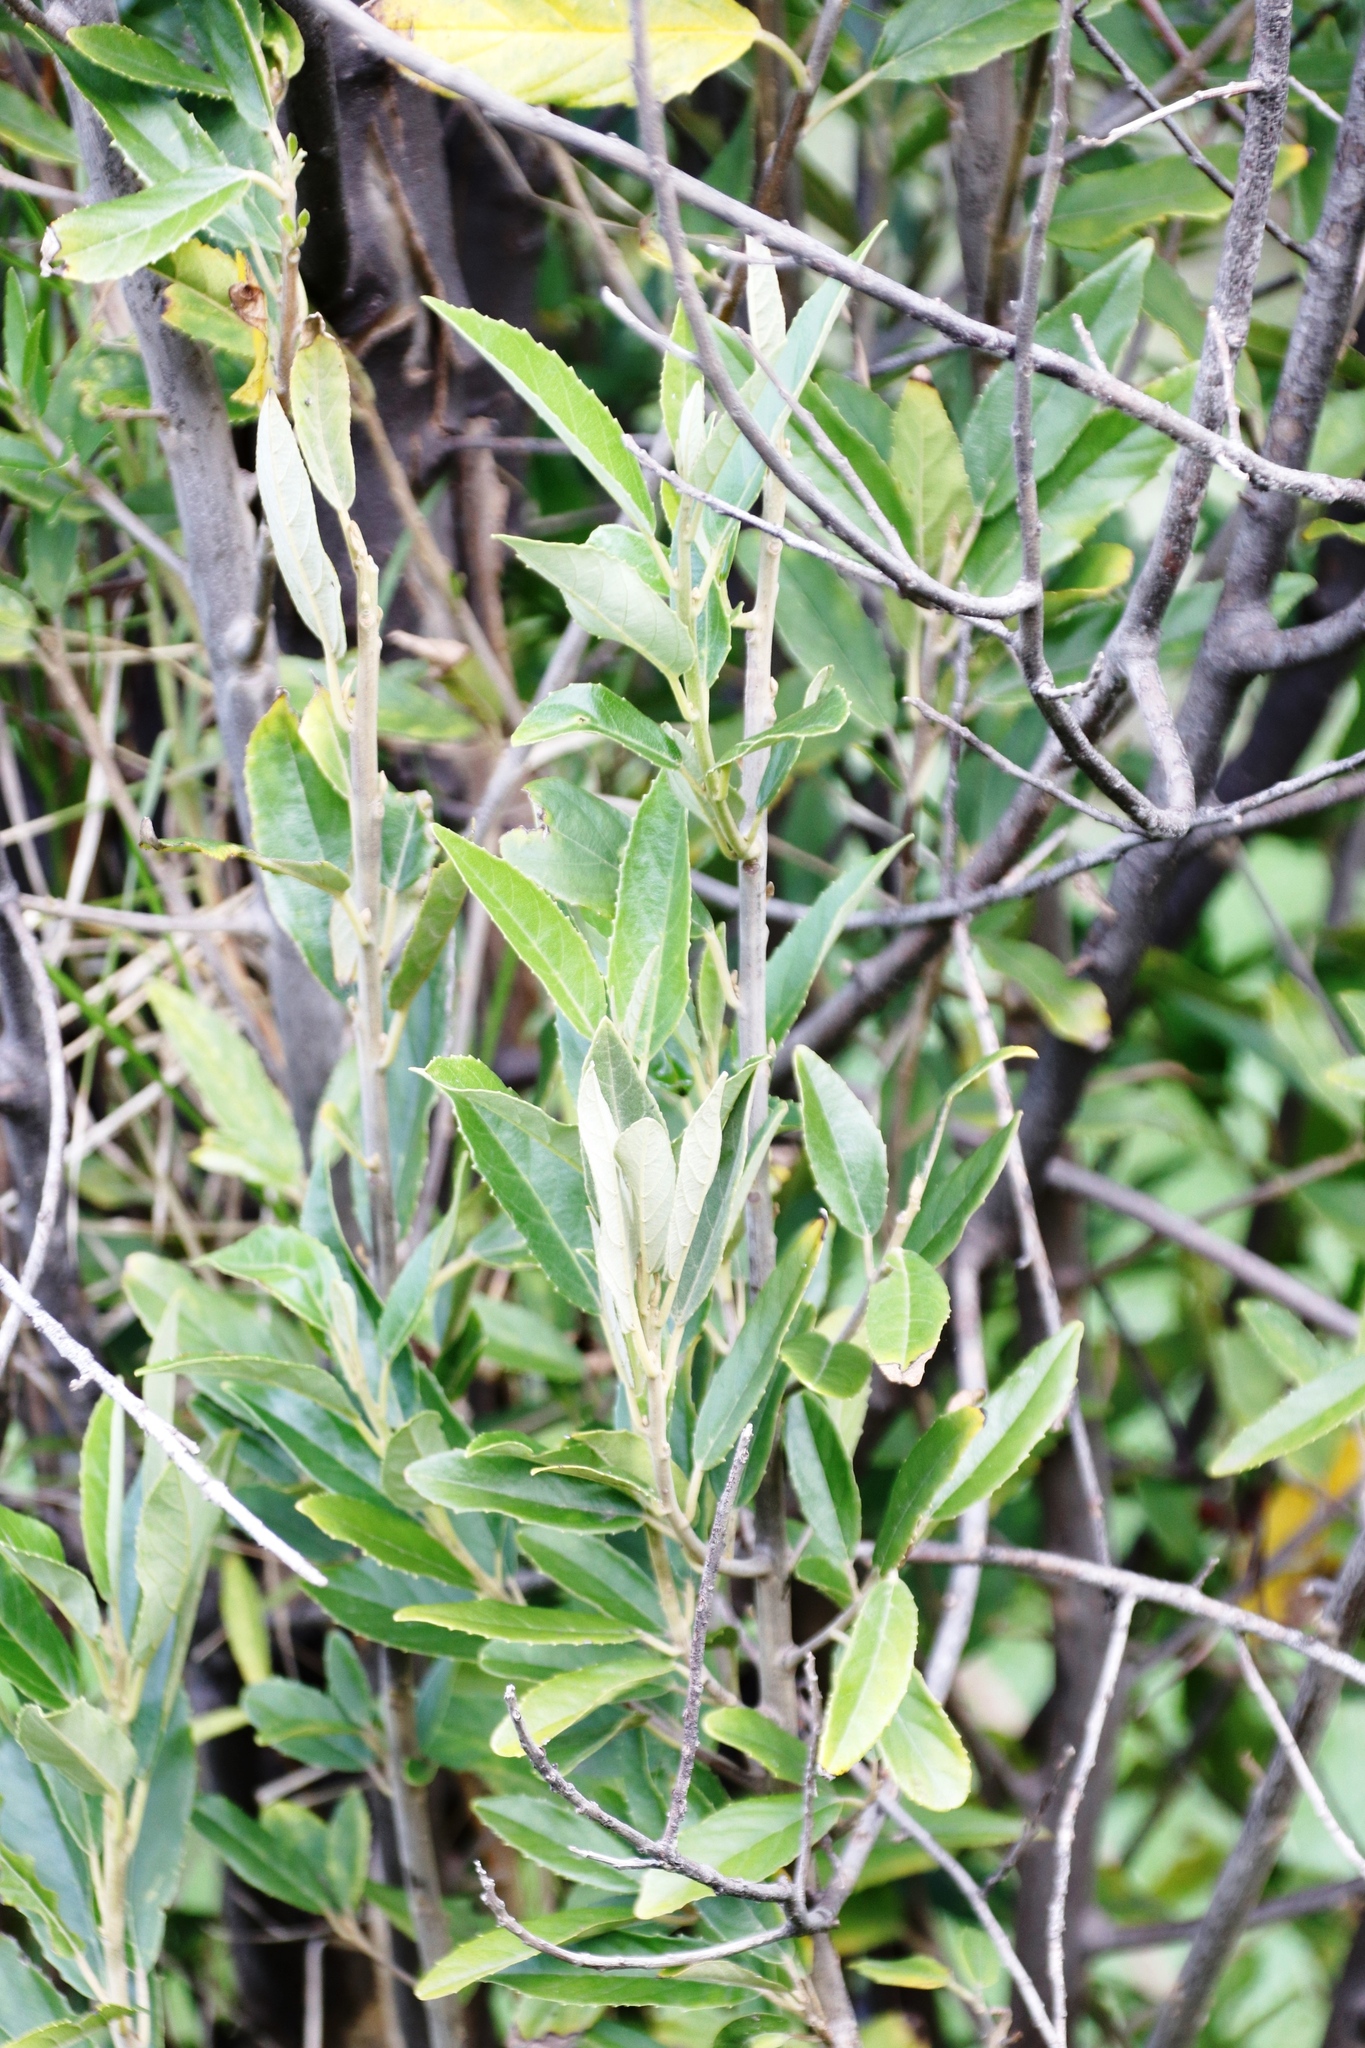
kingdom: Plantae
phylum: Tracheophyta
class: Magnoliopsida
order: Malpighiales
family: Achariaceae
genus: Kiggelaria
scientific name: Kiggelaria africana
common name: Wild peach
